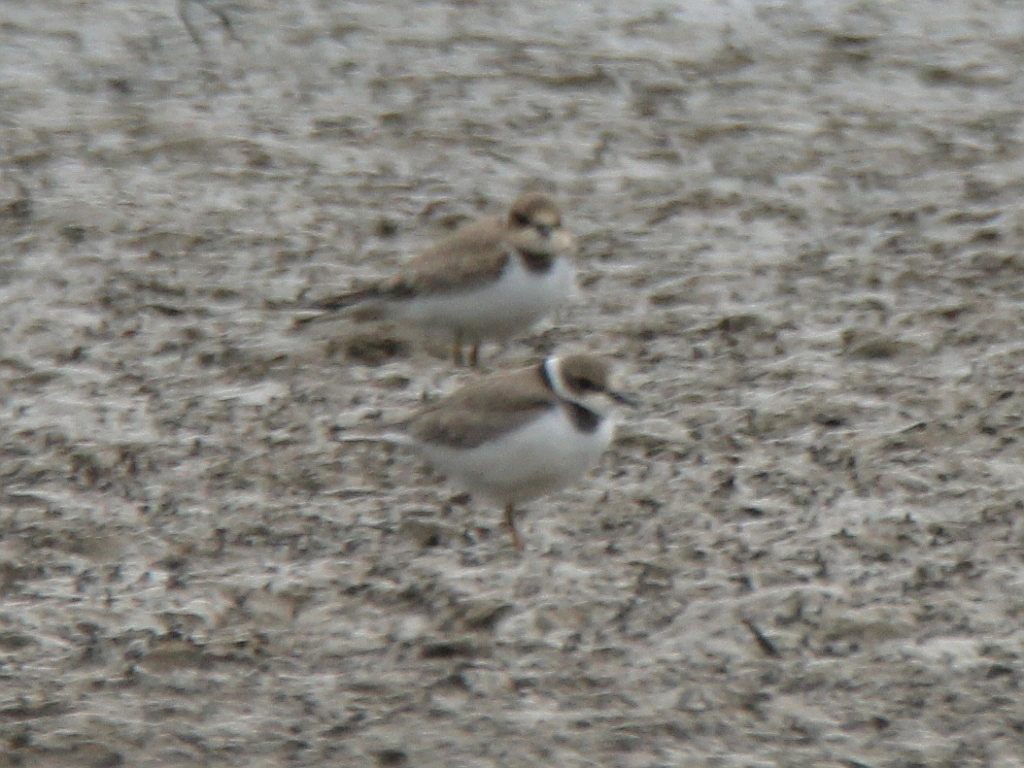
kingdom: Animalia
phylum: Chordata
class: Aves
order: Charadriiformes
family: Charadriidae
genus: Charadrius
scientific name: Charadrius dubius
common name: Little ringed plover
